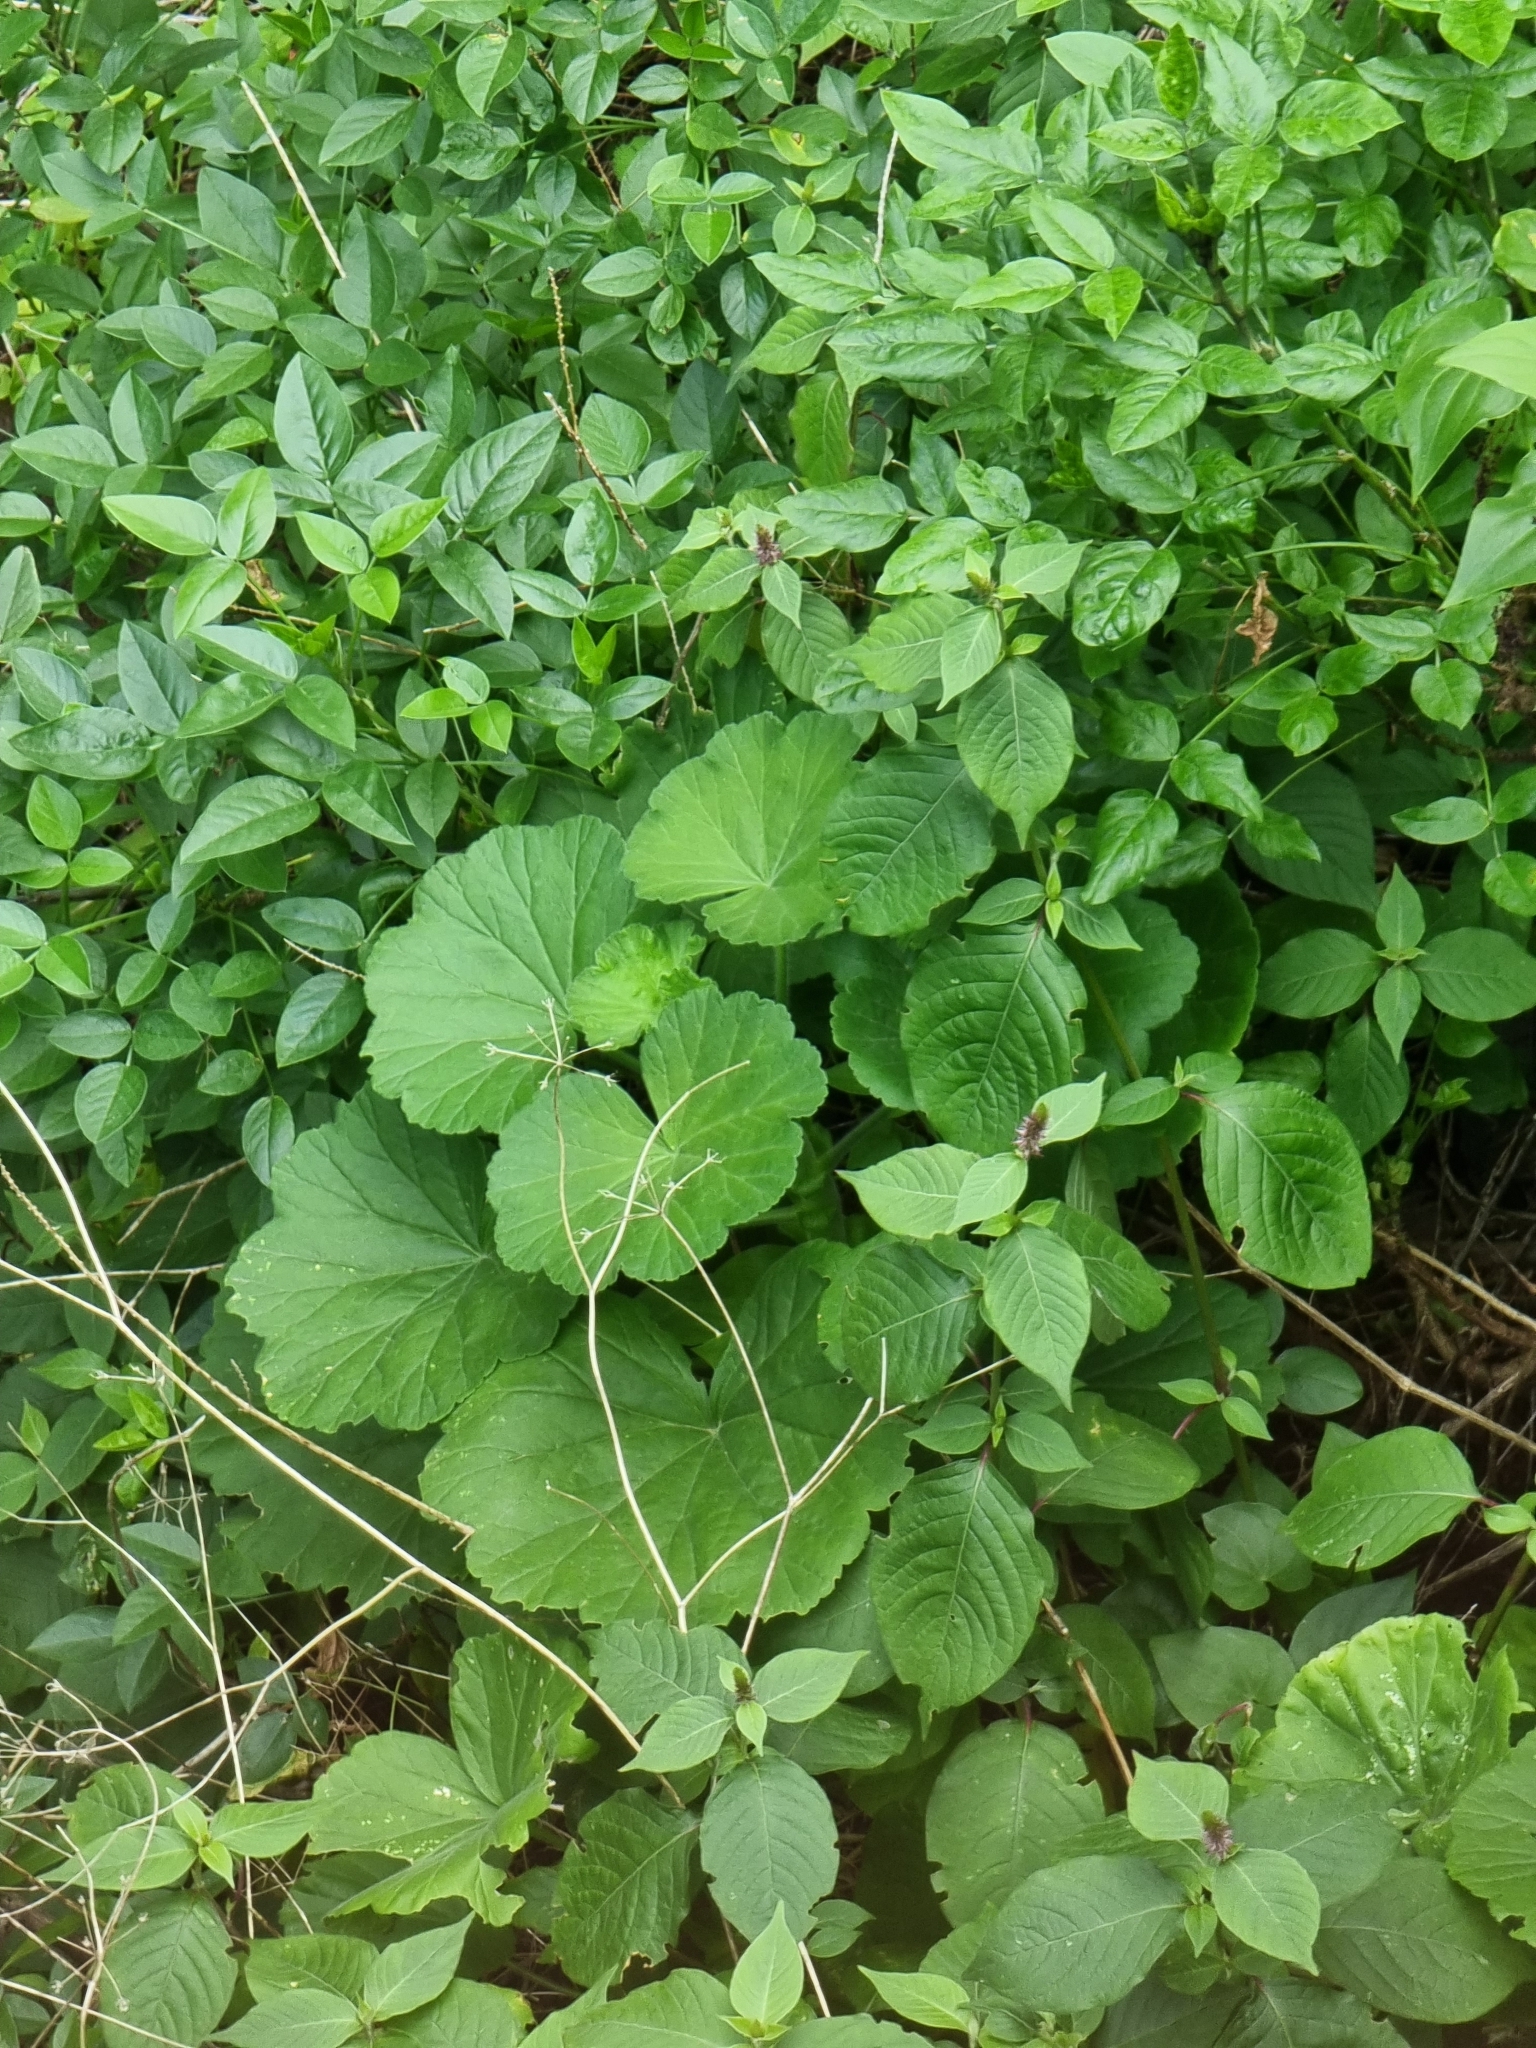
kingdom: Plantae
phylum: Tracheophyta
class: Magnoliopsida
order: Geraniales
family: Geraniaceae
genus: Pelargonium
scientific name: Pelargonium hybridum
